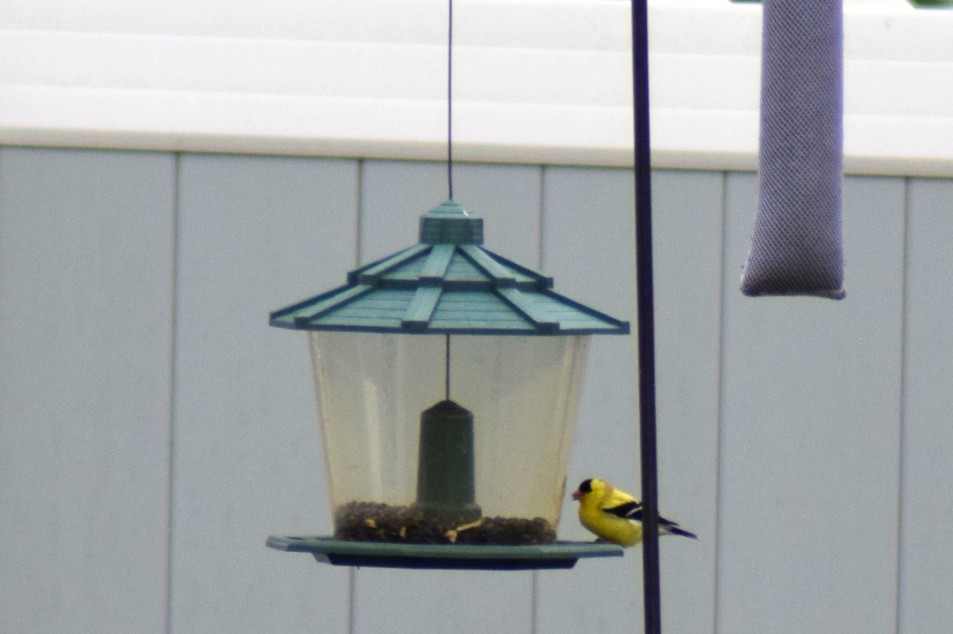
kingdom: Animalia
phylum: Chordata
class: Aves
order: Passeriformes
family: Fringillidae
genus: Spinus
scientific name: Spinus tristis
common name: American goldfinch
